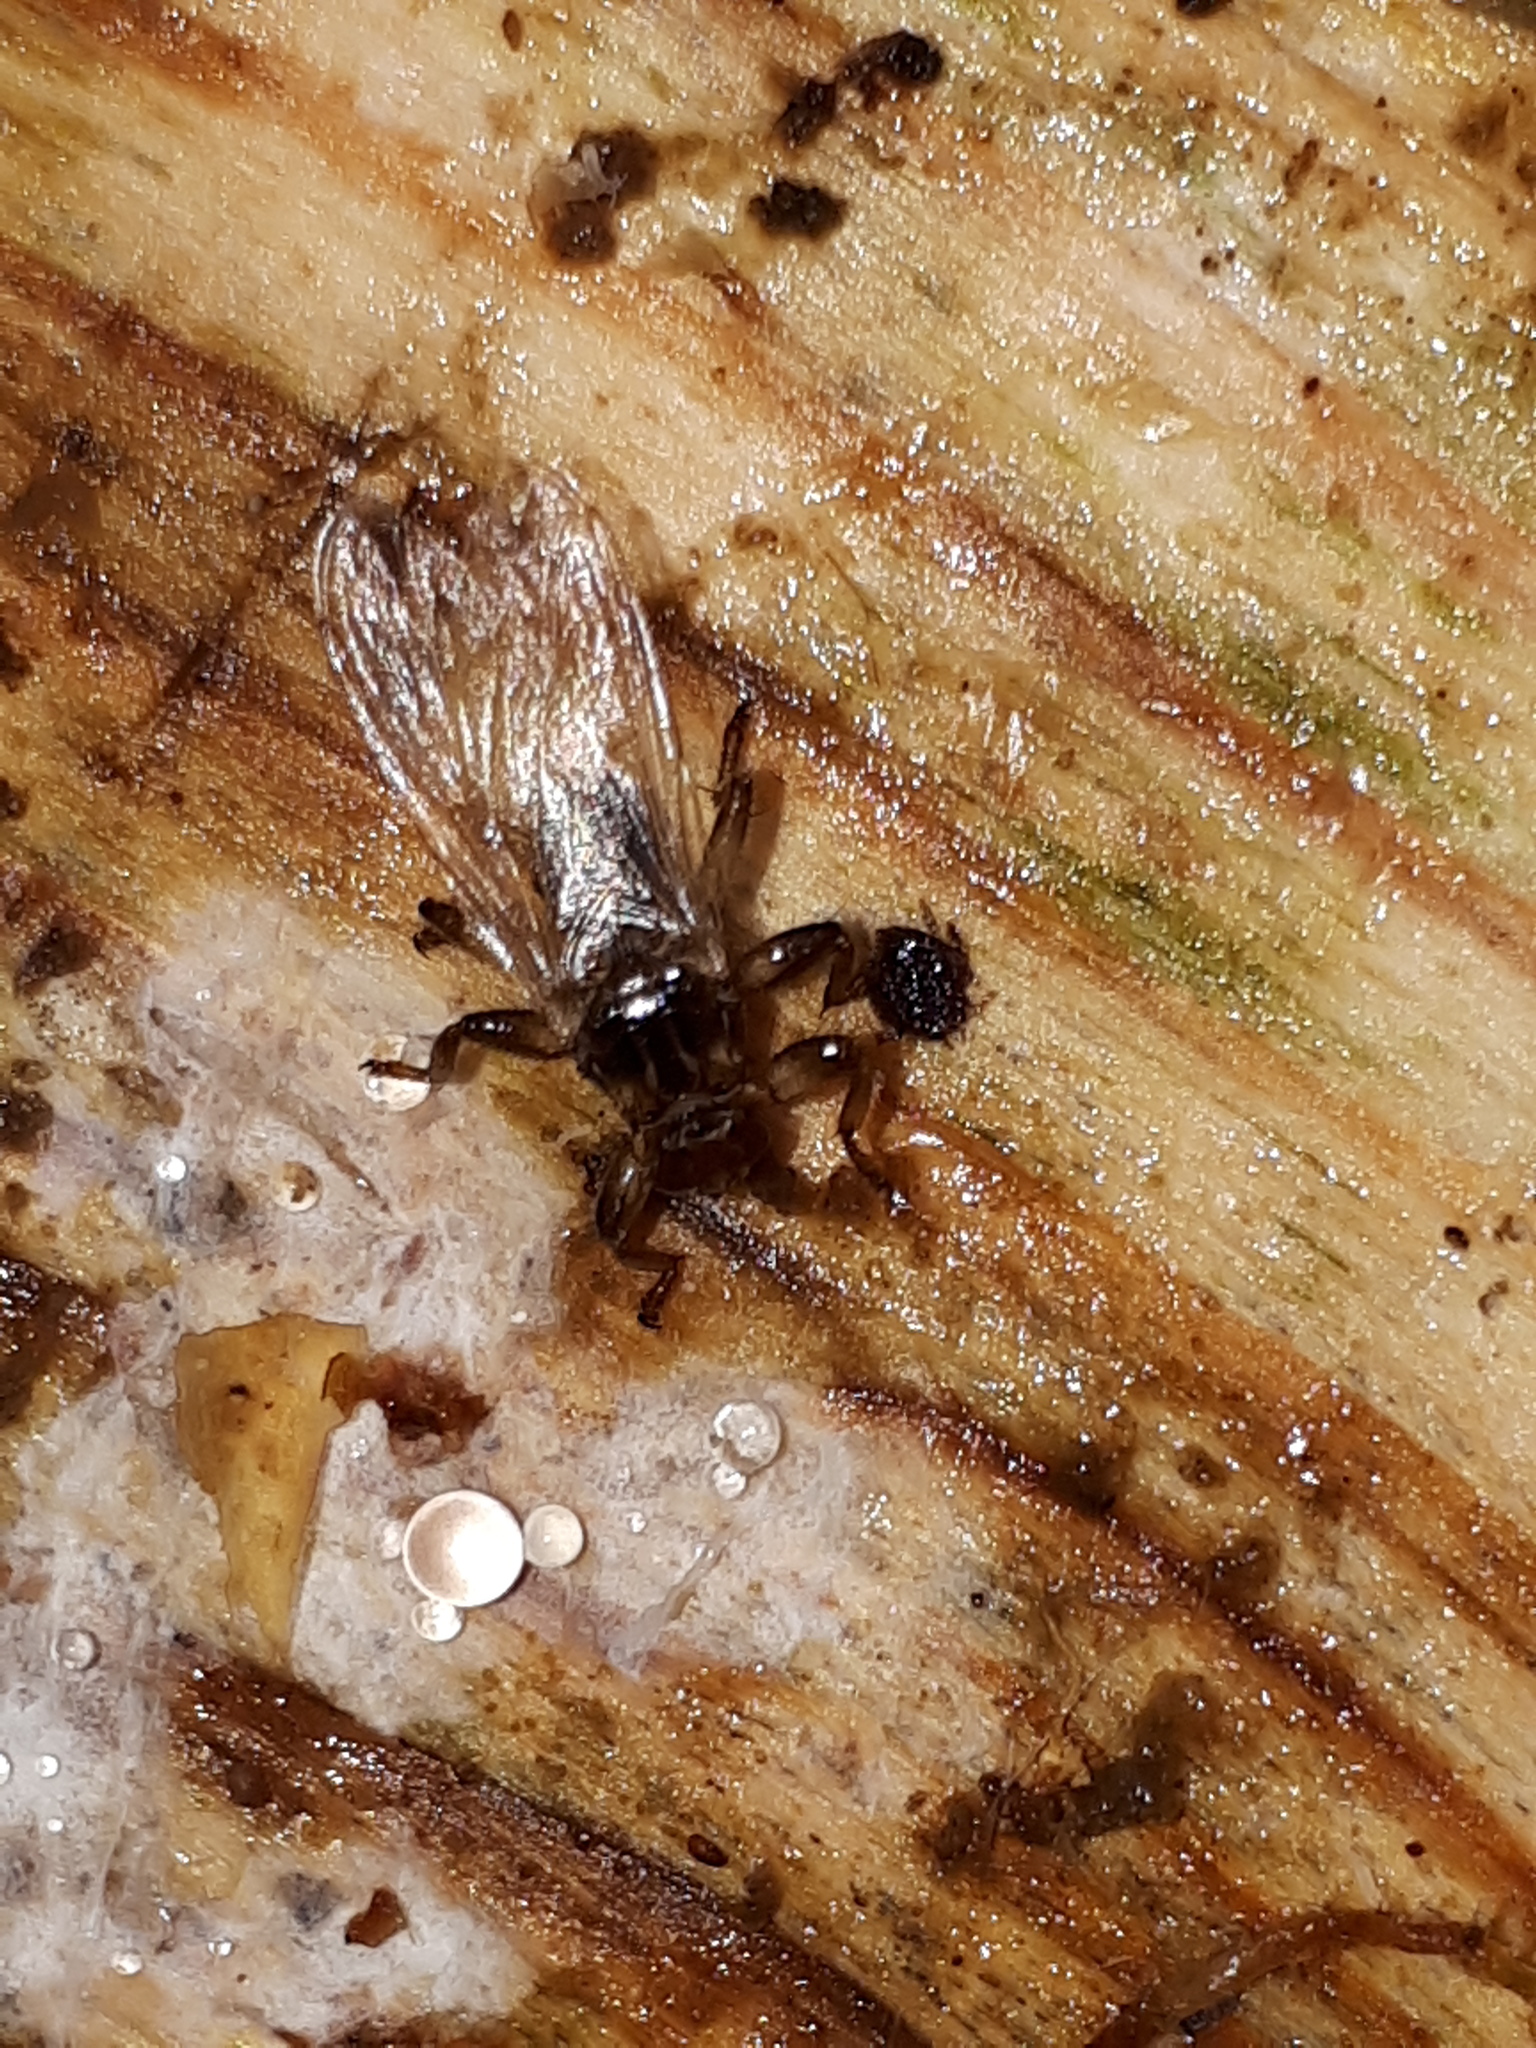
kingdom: Animalia
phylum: Arthropoda
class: Insecta
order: Diptera
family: Hippoboscidae
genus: Lipoptena
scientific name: Lipoptena cervi
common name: Deer ked
